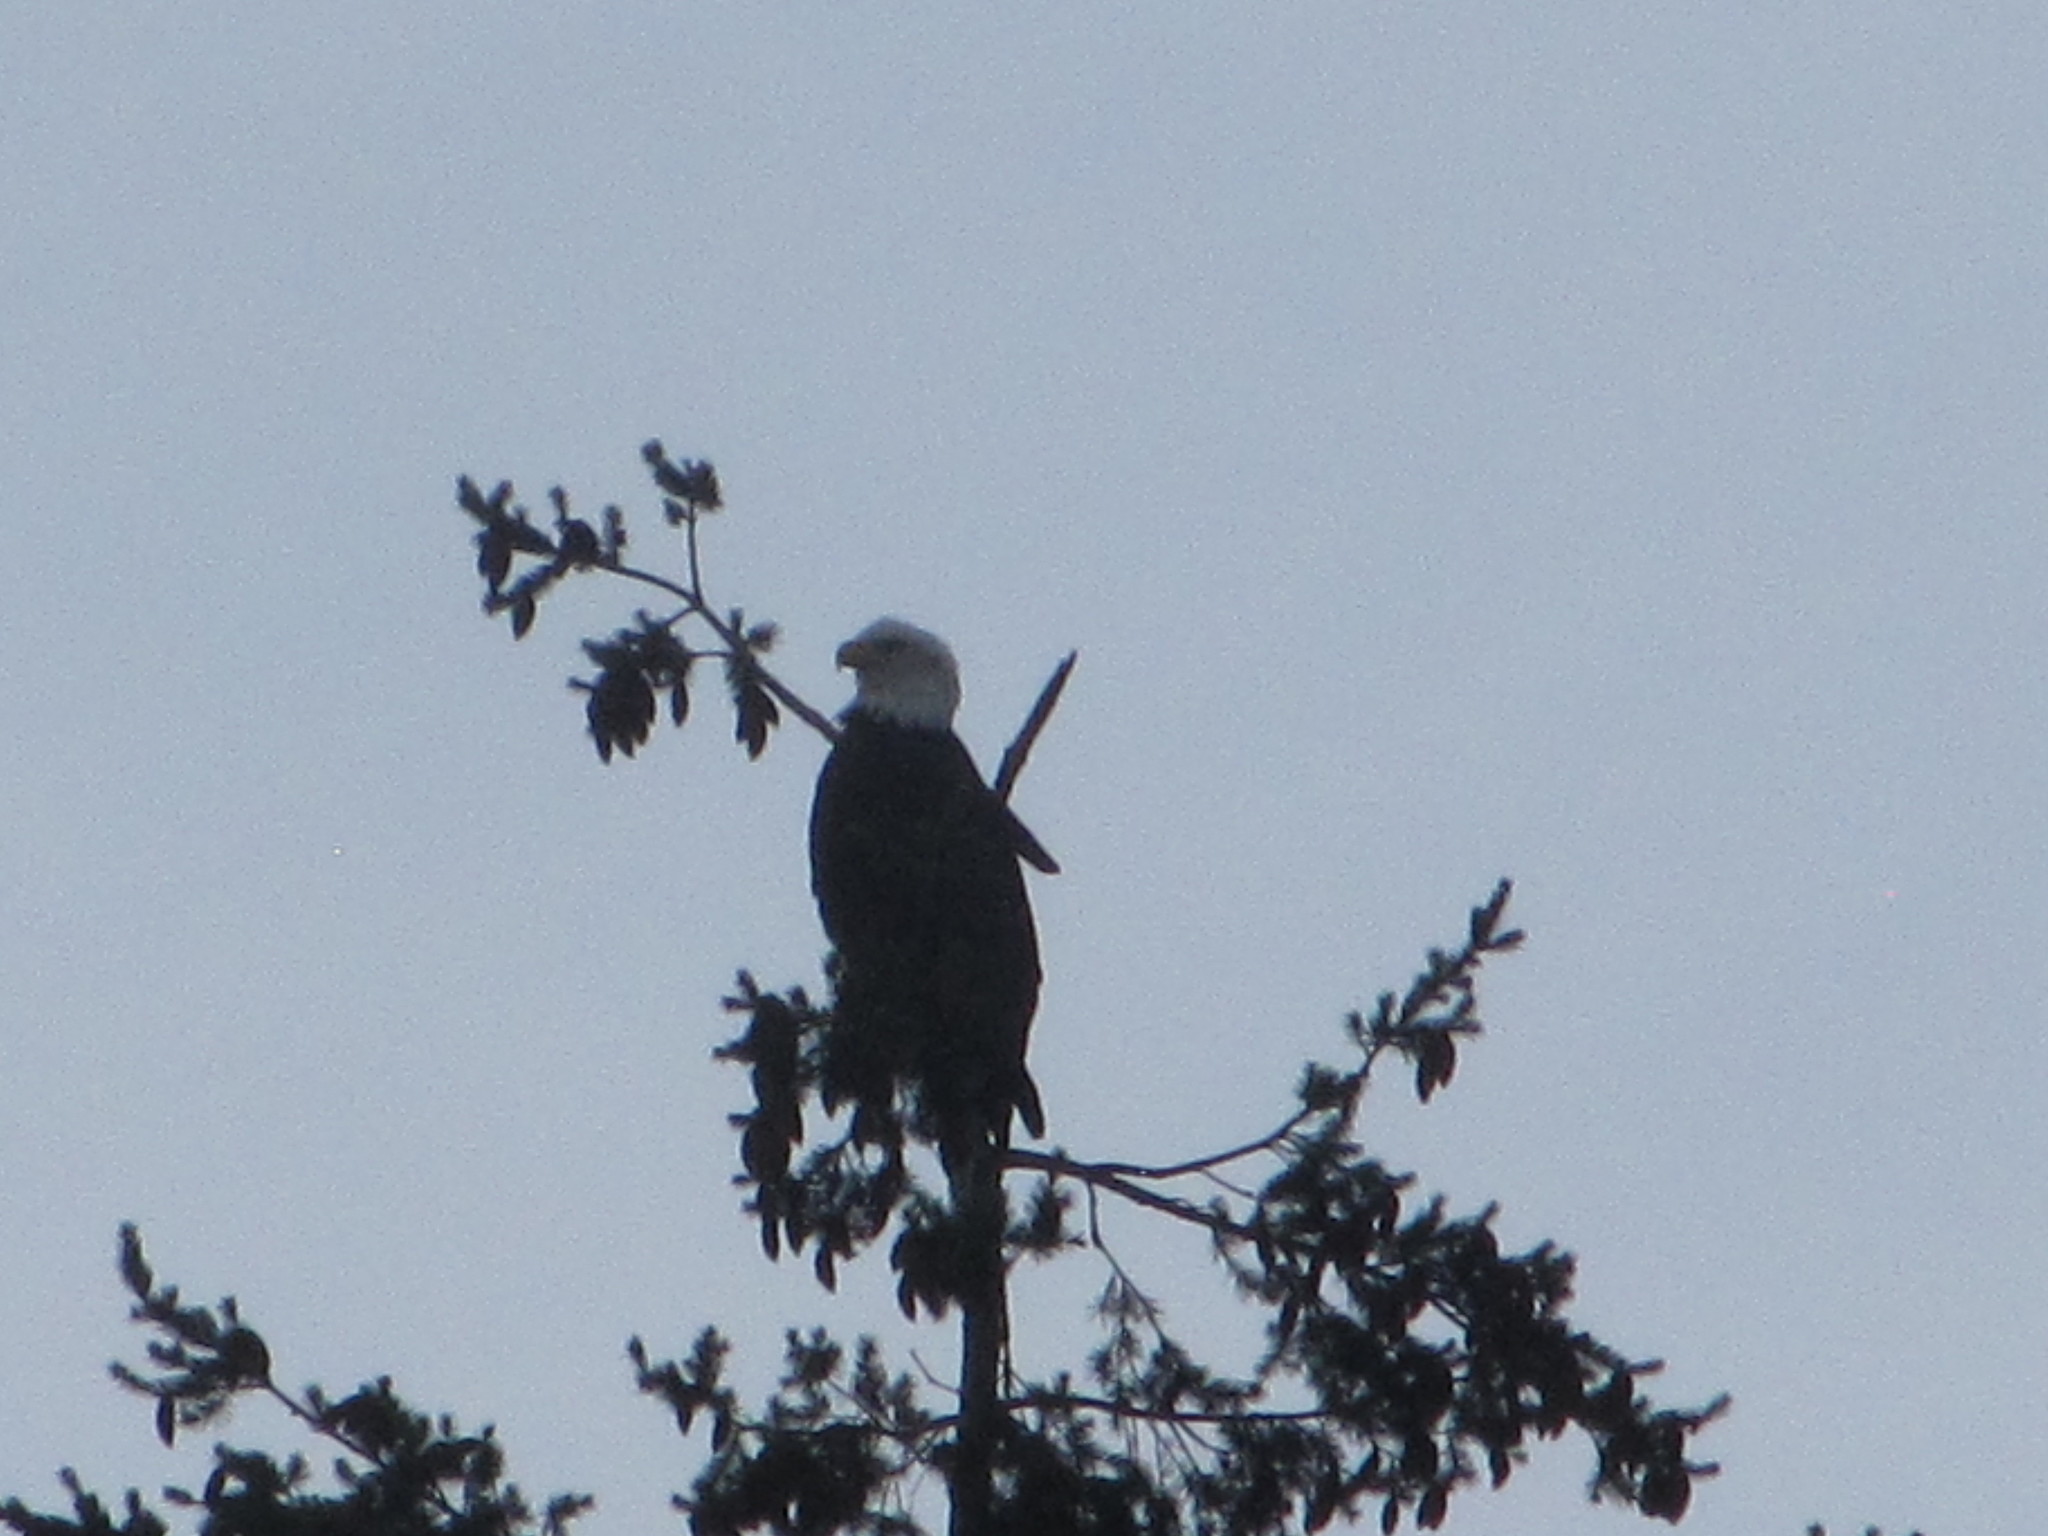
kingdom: Animalia
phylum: Chordata
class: Aves
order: Accipitriformes
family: Accipitridae
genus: Haliaeetus
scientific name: Haliaeetus leucocephalus
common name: Bald eagle
